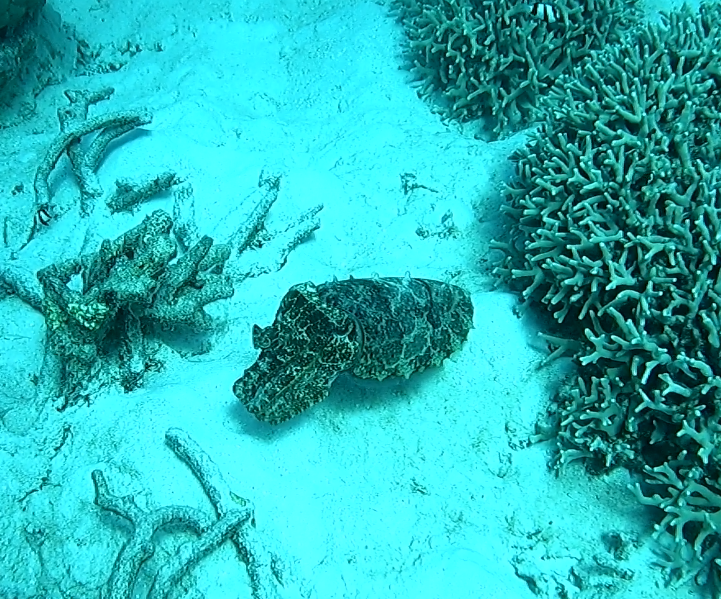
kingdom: Animalia
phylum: Mollusca
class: Cephalopoda
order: Sepiida
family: Sepiidae
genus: Ascarosepion
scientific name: Ascarosepion latimanus
